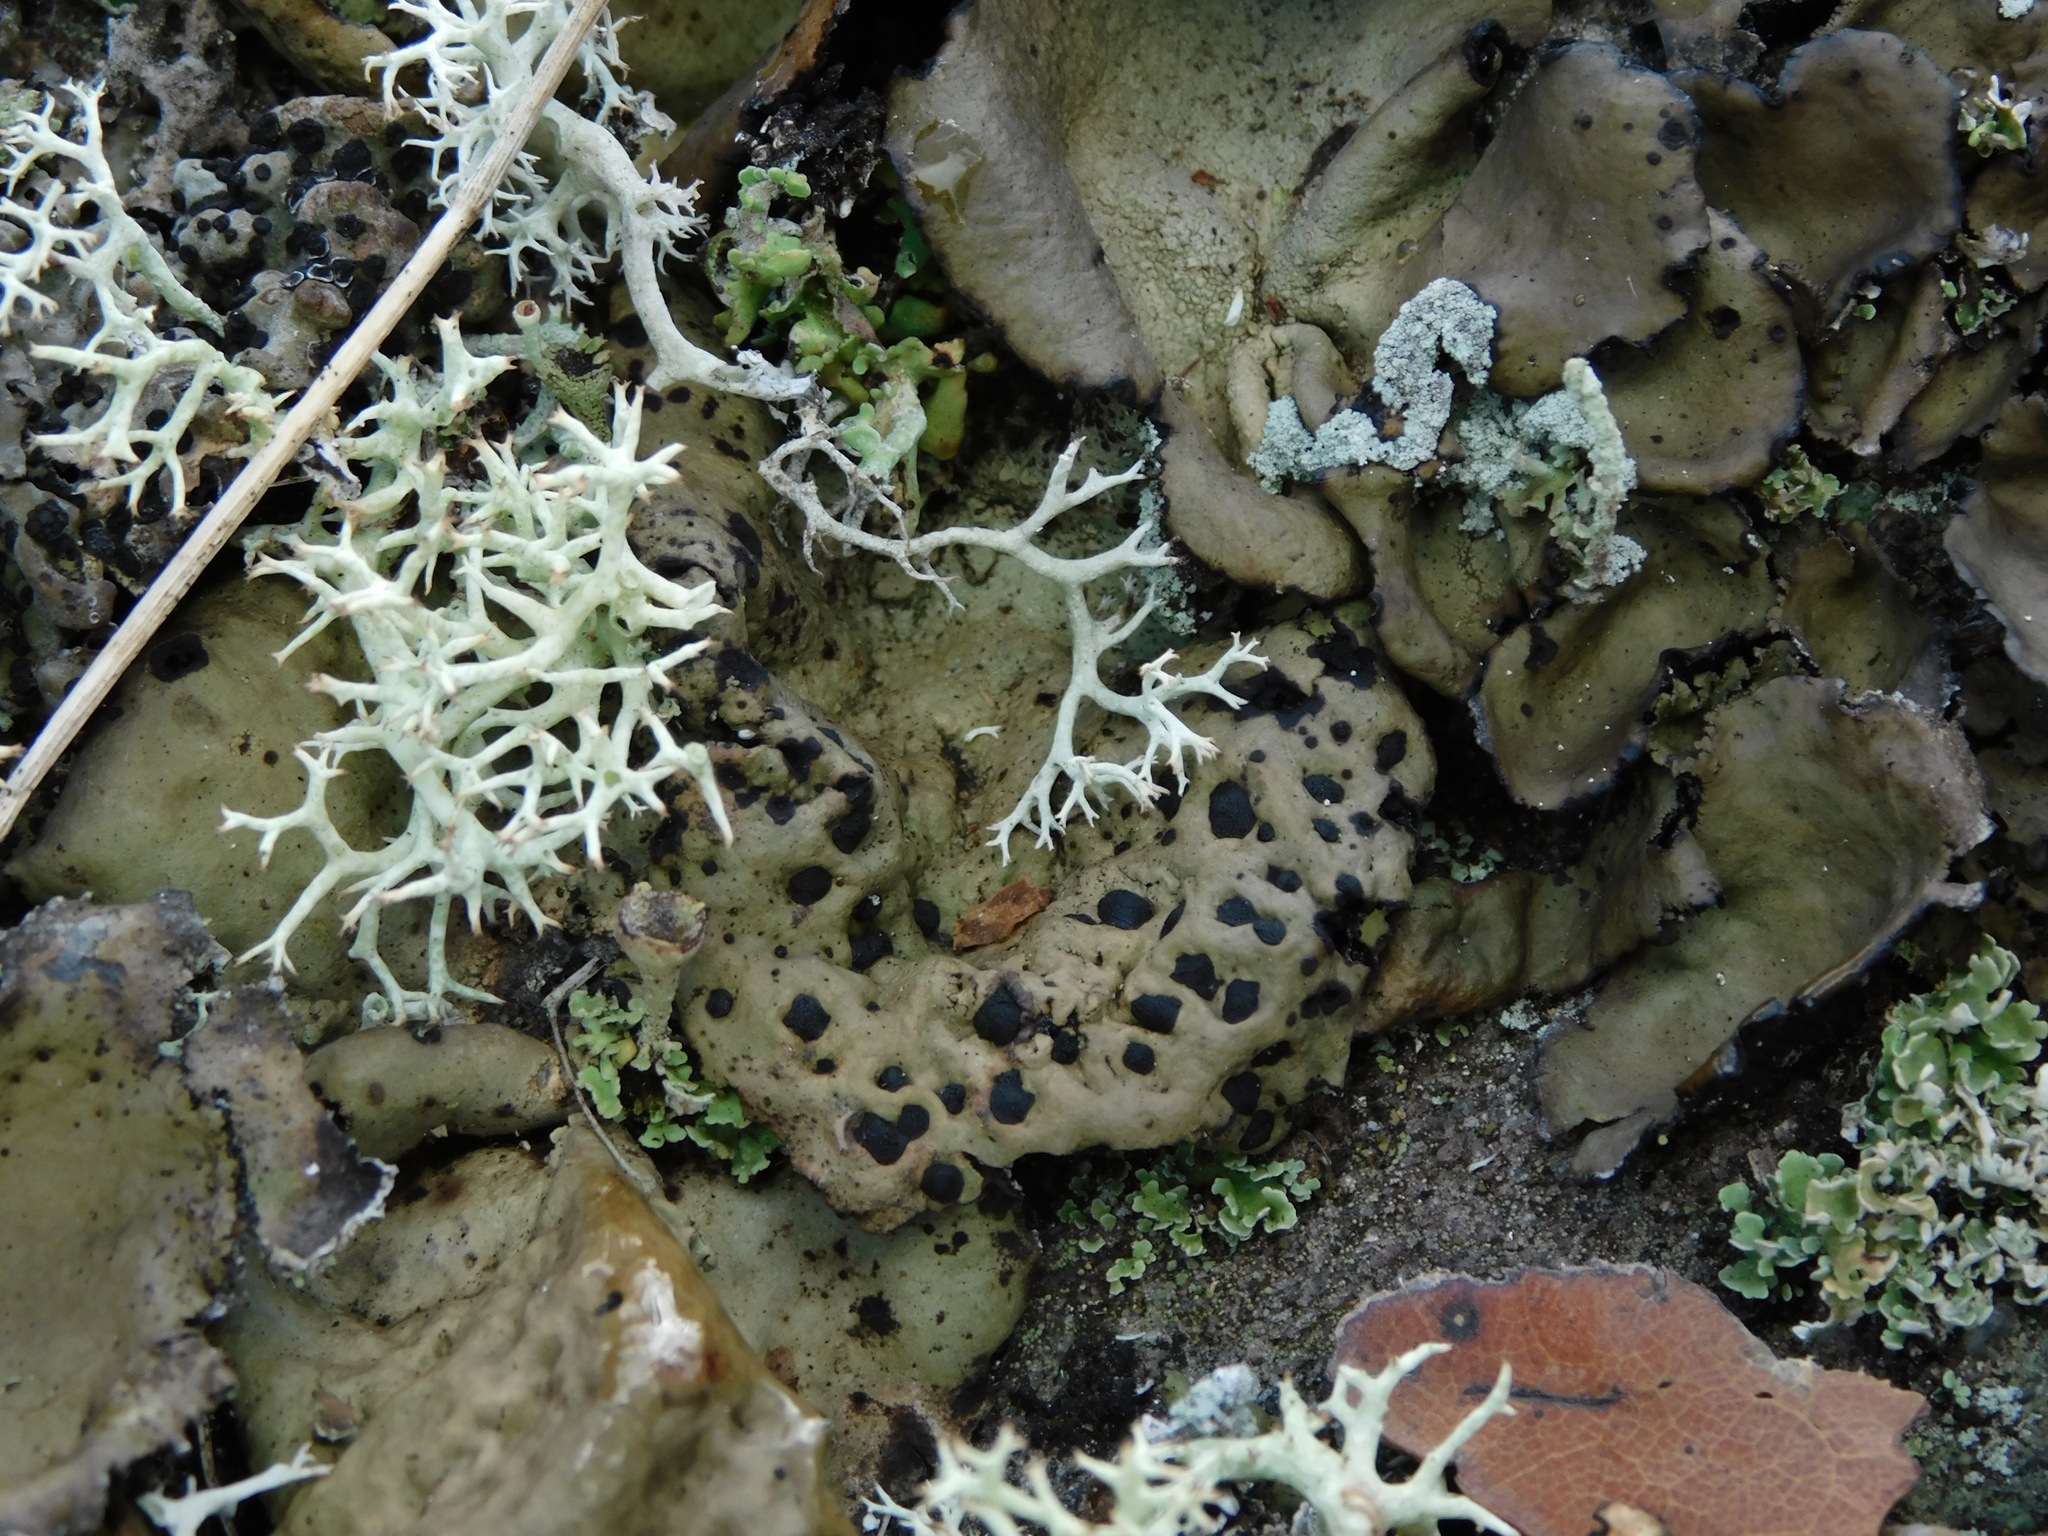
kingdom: Fungi
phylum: Ascomycota
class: Lecanoromycetes
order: Umbilicariales
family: Umbilicariaceae
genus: Umbilicaria
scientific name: Umbilicaria muhlenbergii
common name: Lesser rocktripe
